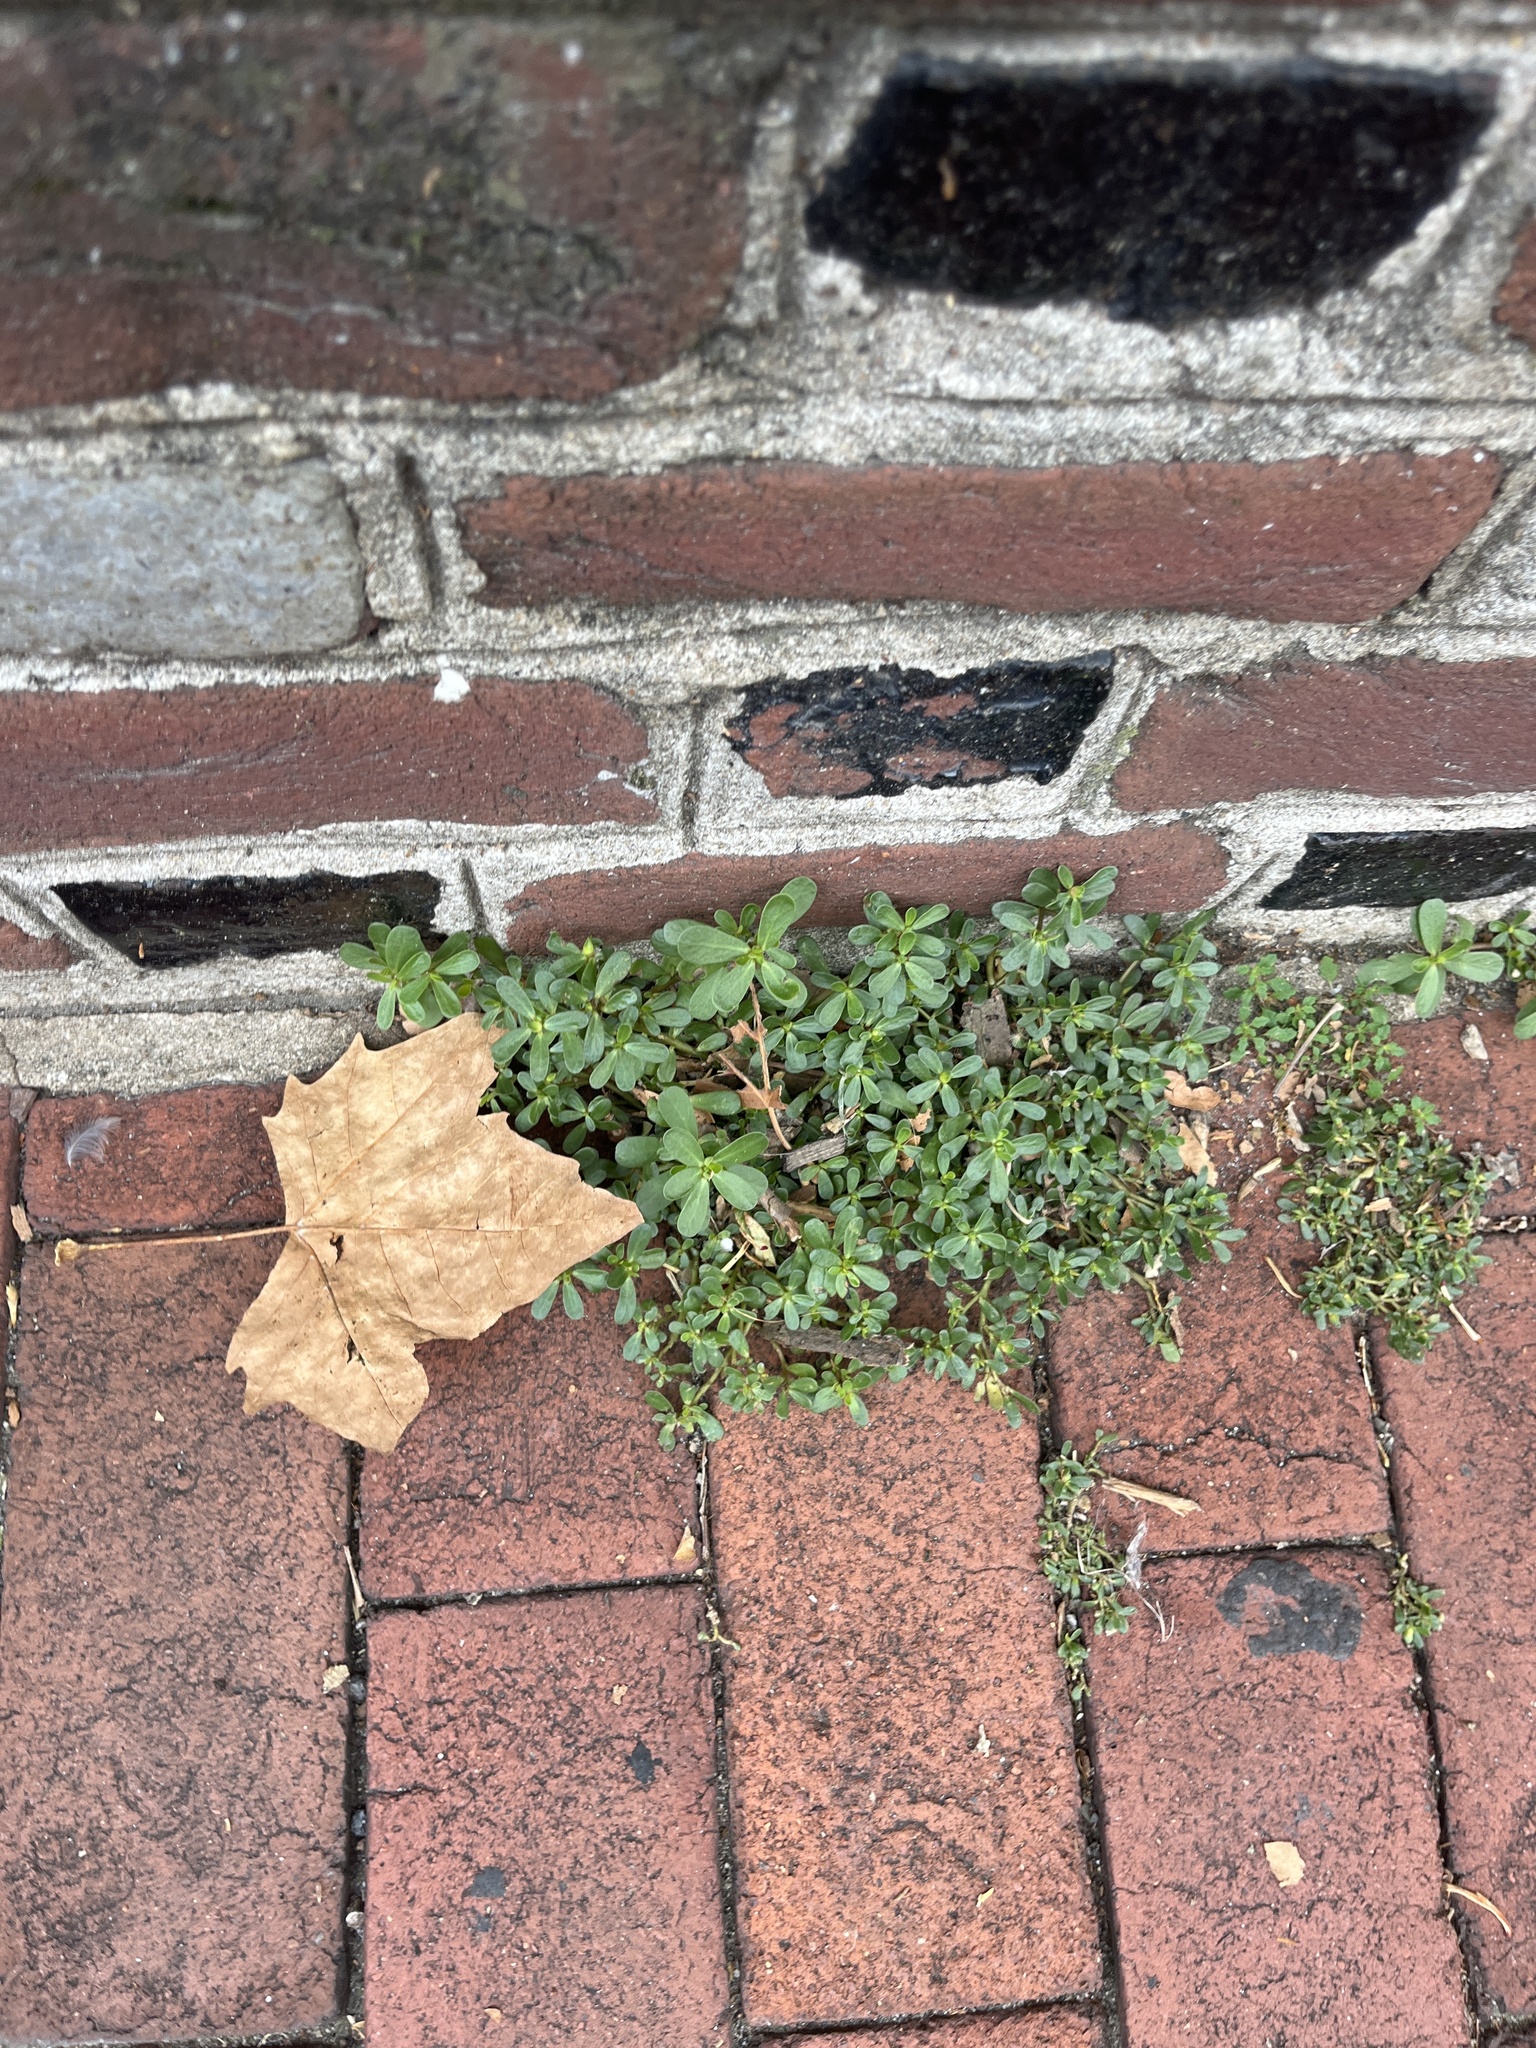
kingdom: Plantae
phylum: Tracheophyta
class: Magnoliopsida
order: Caryophyllales
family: Portulacaceae
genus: Portulaca
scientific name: Portulaca oleracea
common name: Common purslane
